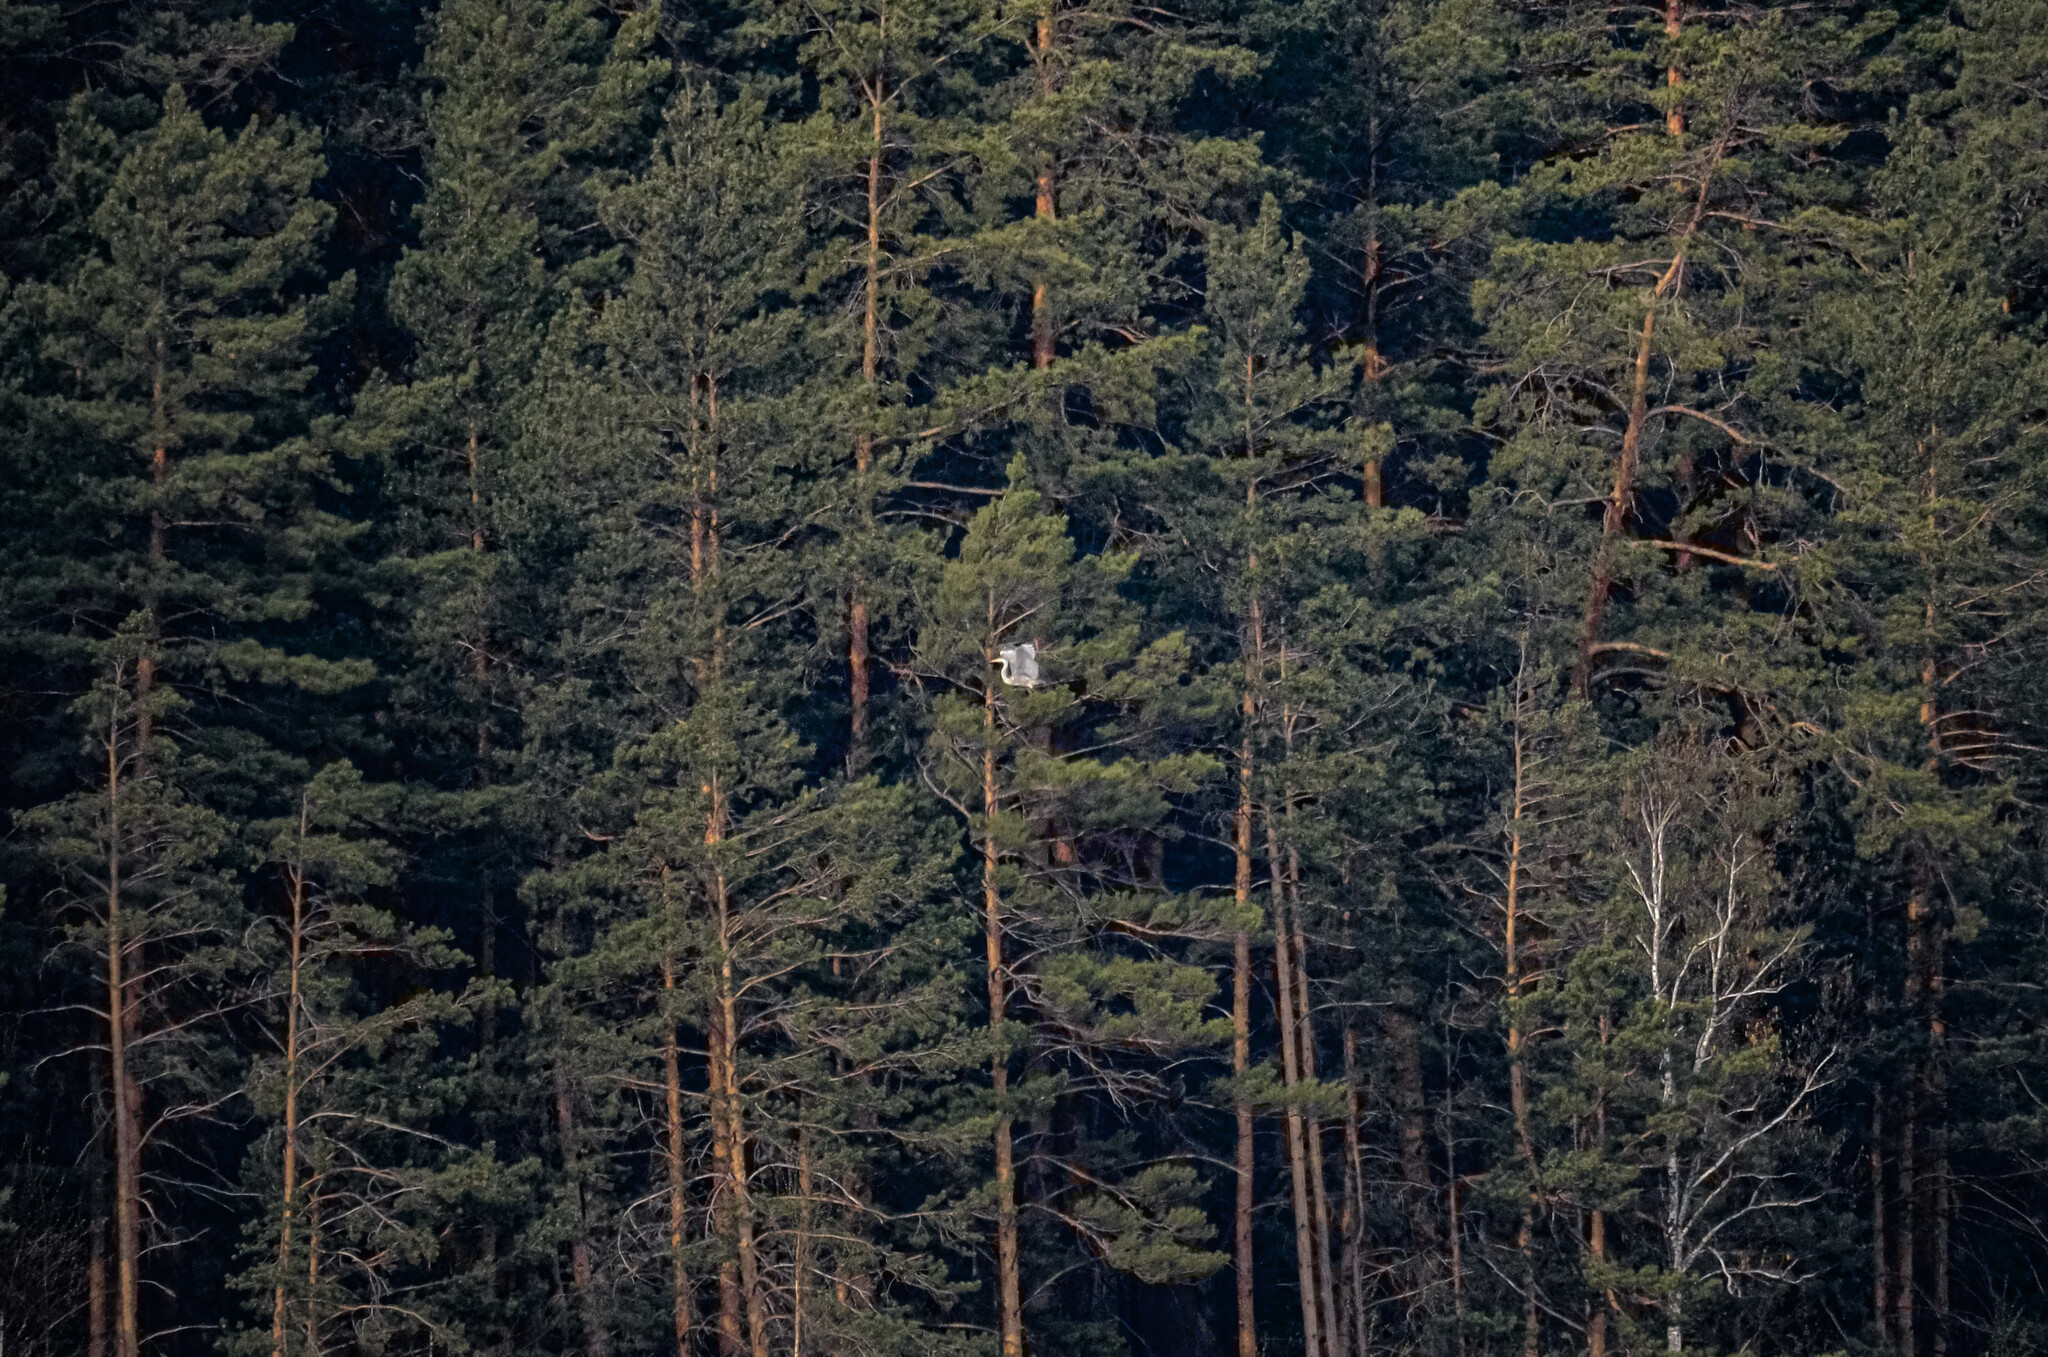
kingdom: Animalia
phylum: Chordata
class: Aves
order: Pelecaniformes
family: Ardeidae
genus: Ardea
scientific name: Ardea cinerea
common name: Grey heron
